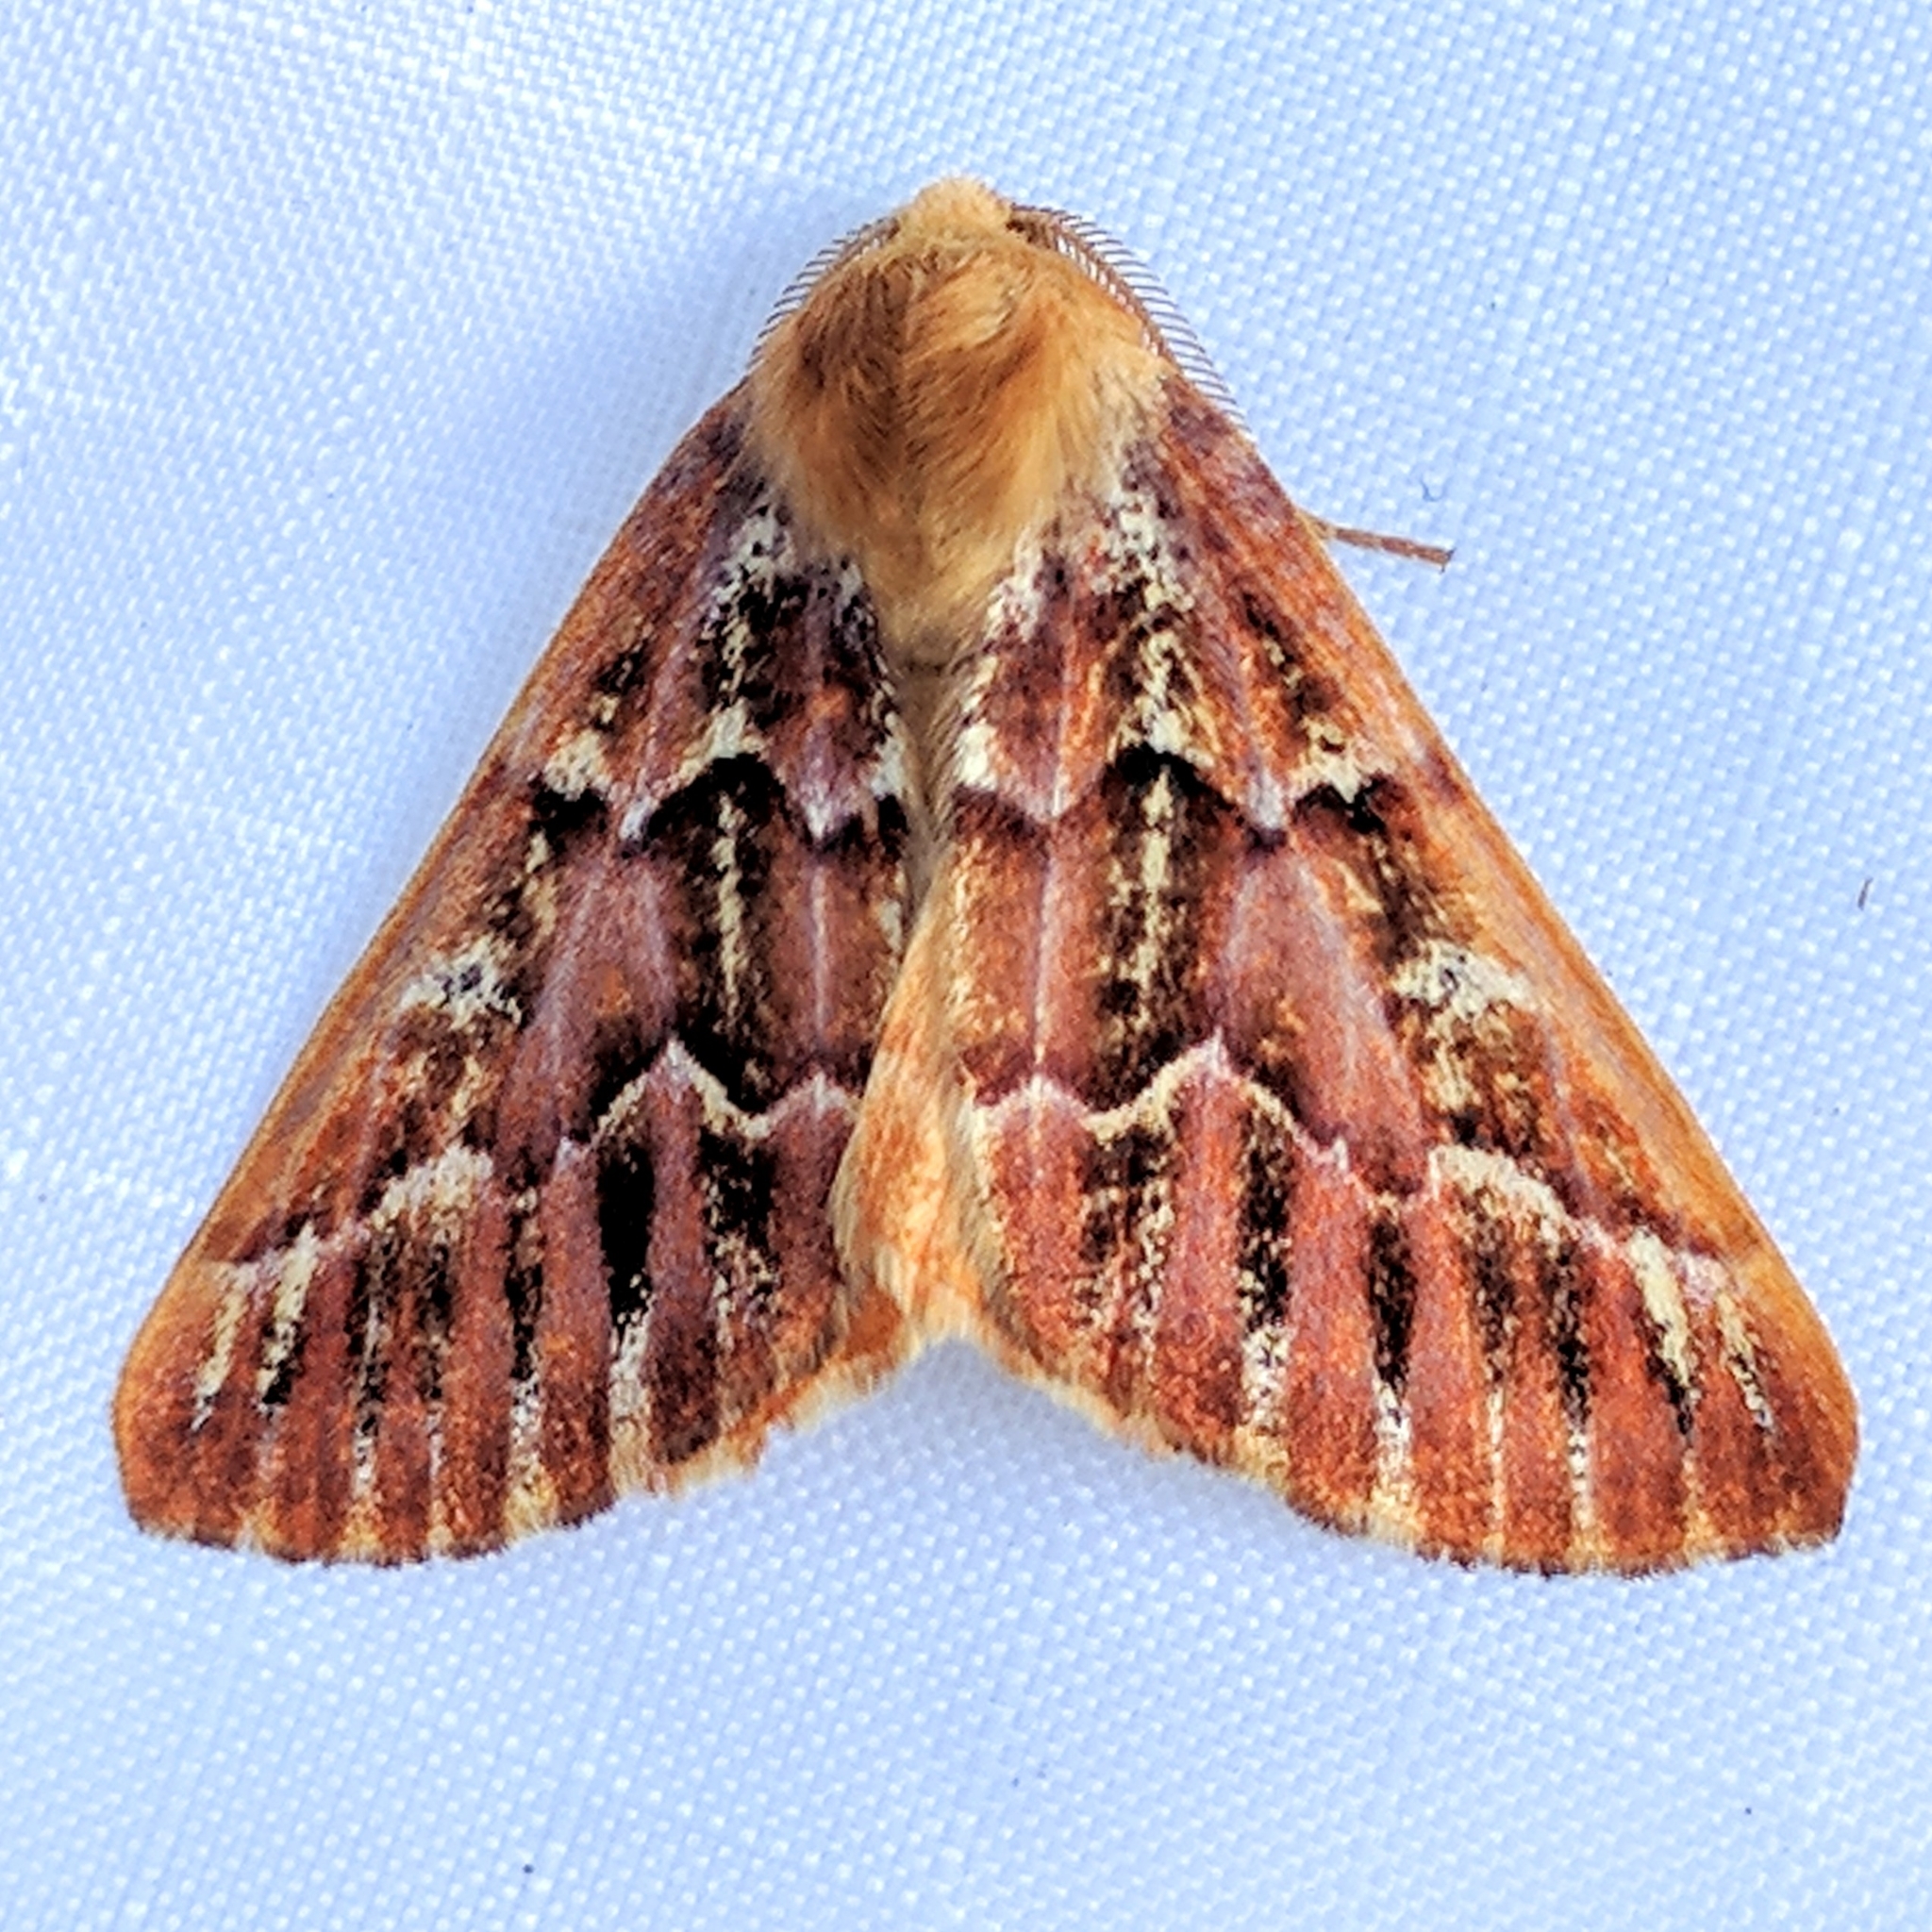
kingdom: Animalia
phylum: Arthropoda
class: Insecta
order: Lepidoptera
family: Geometridae
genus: Caripeta
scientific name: Caripeta aequaliaria
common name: Red girdle moth
